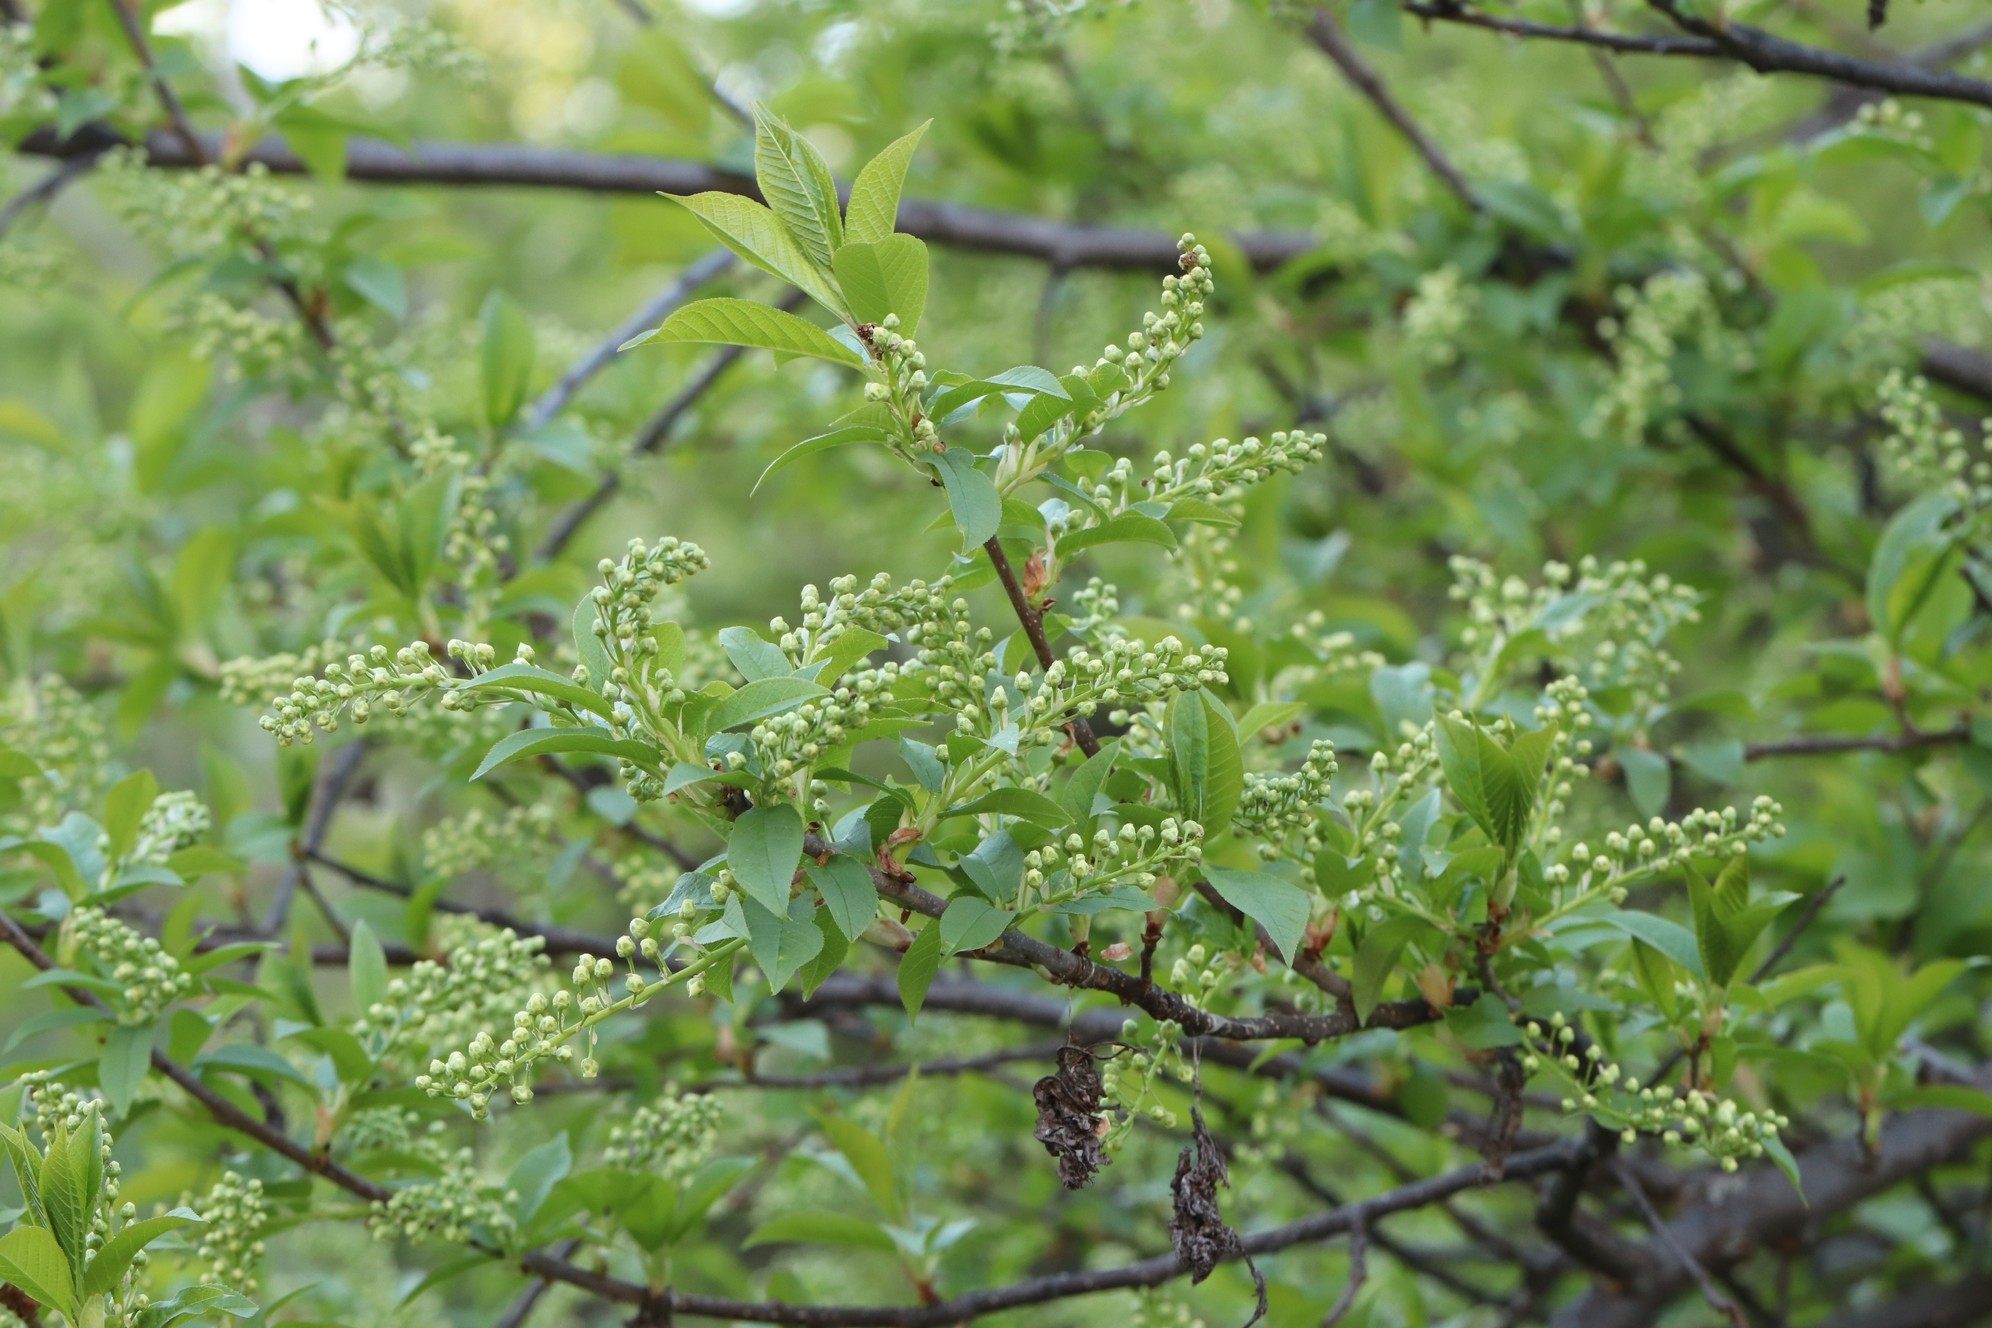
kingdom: Plantae
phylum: Tracheophyta
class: Magnoliopsida
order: Rosales
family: Rosaceae
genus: Prunus
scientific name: Prunus padus
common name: Bird cherry
